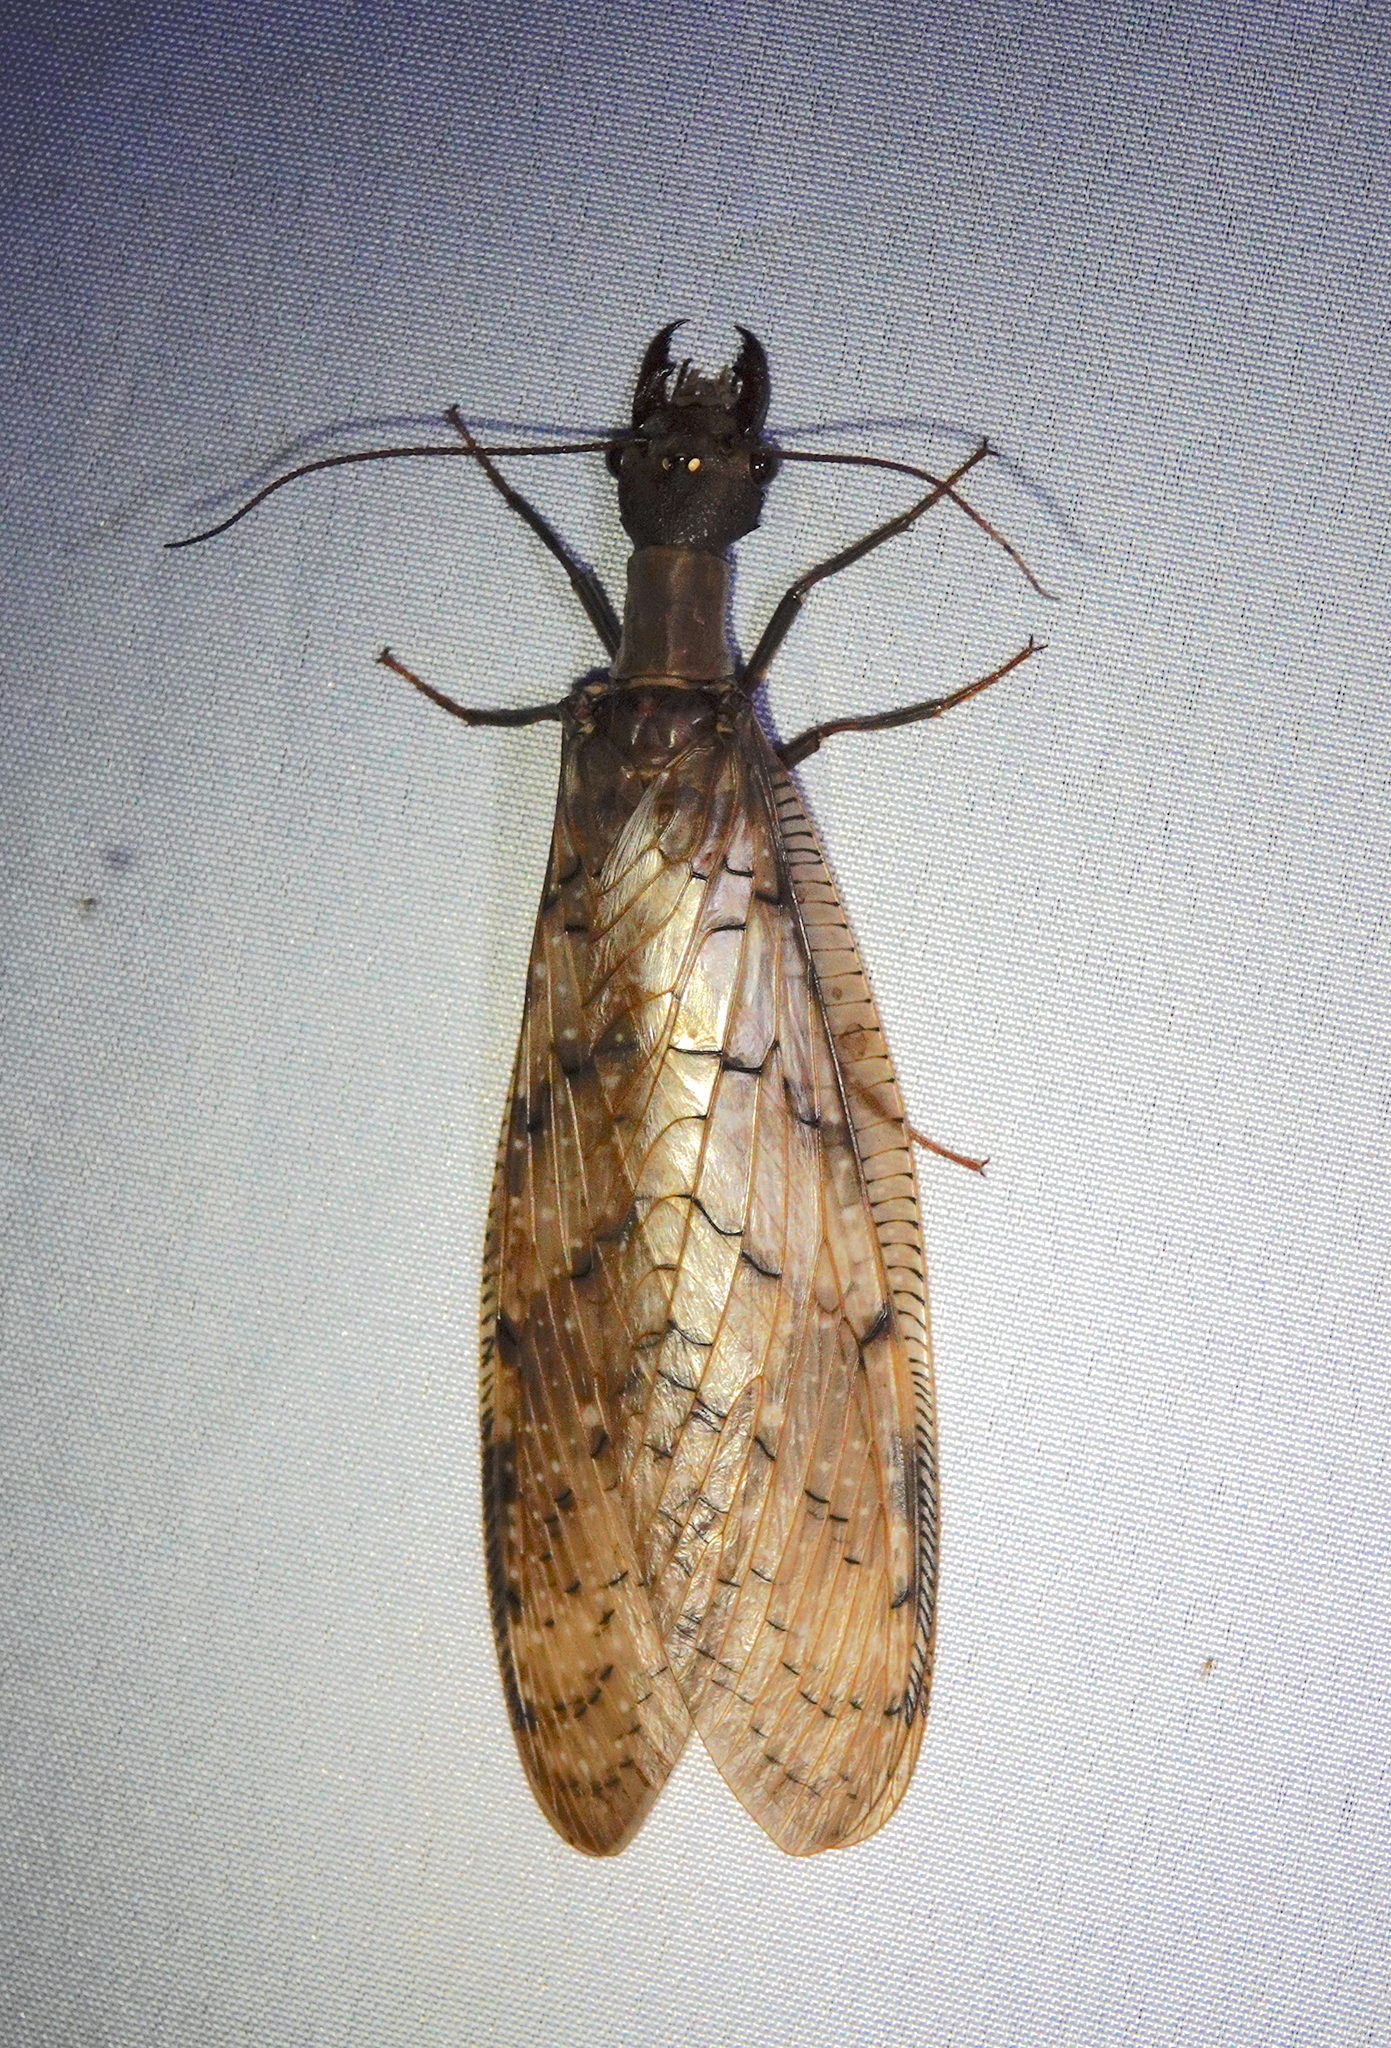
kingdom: Animalia
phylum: Arthropoda
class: Insecta
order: Megaloptera
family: Corydalidae
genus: Corydalus
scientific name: Corydalus armatus
